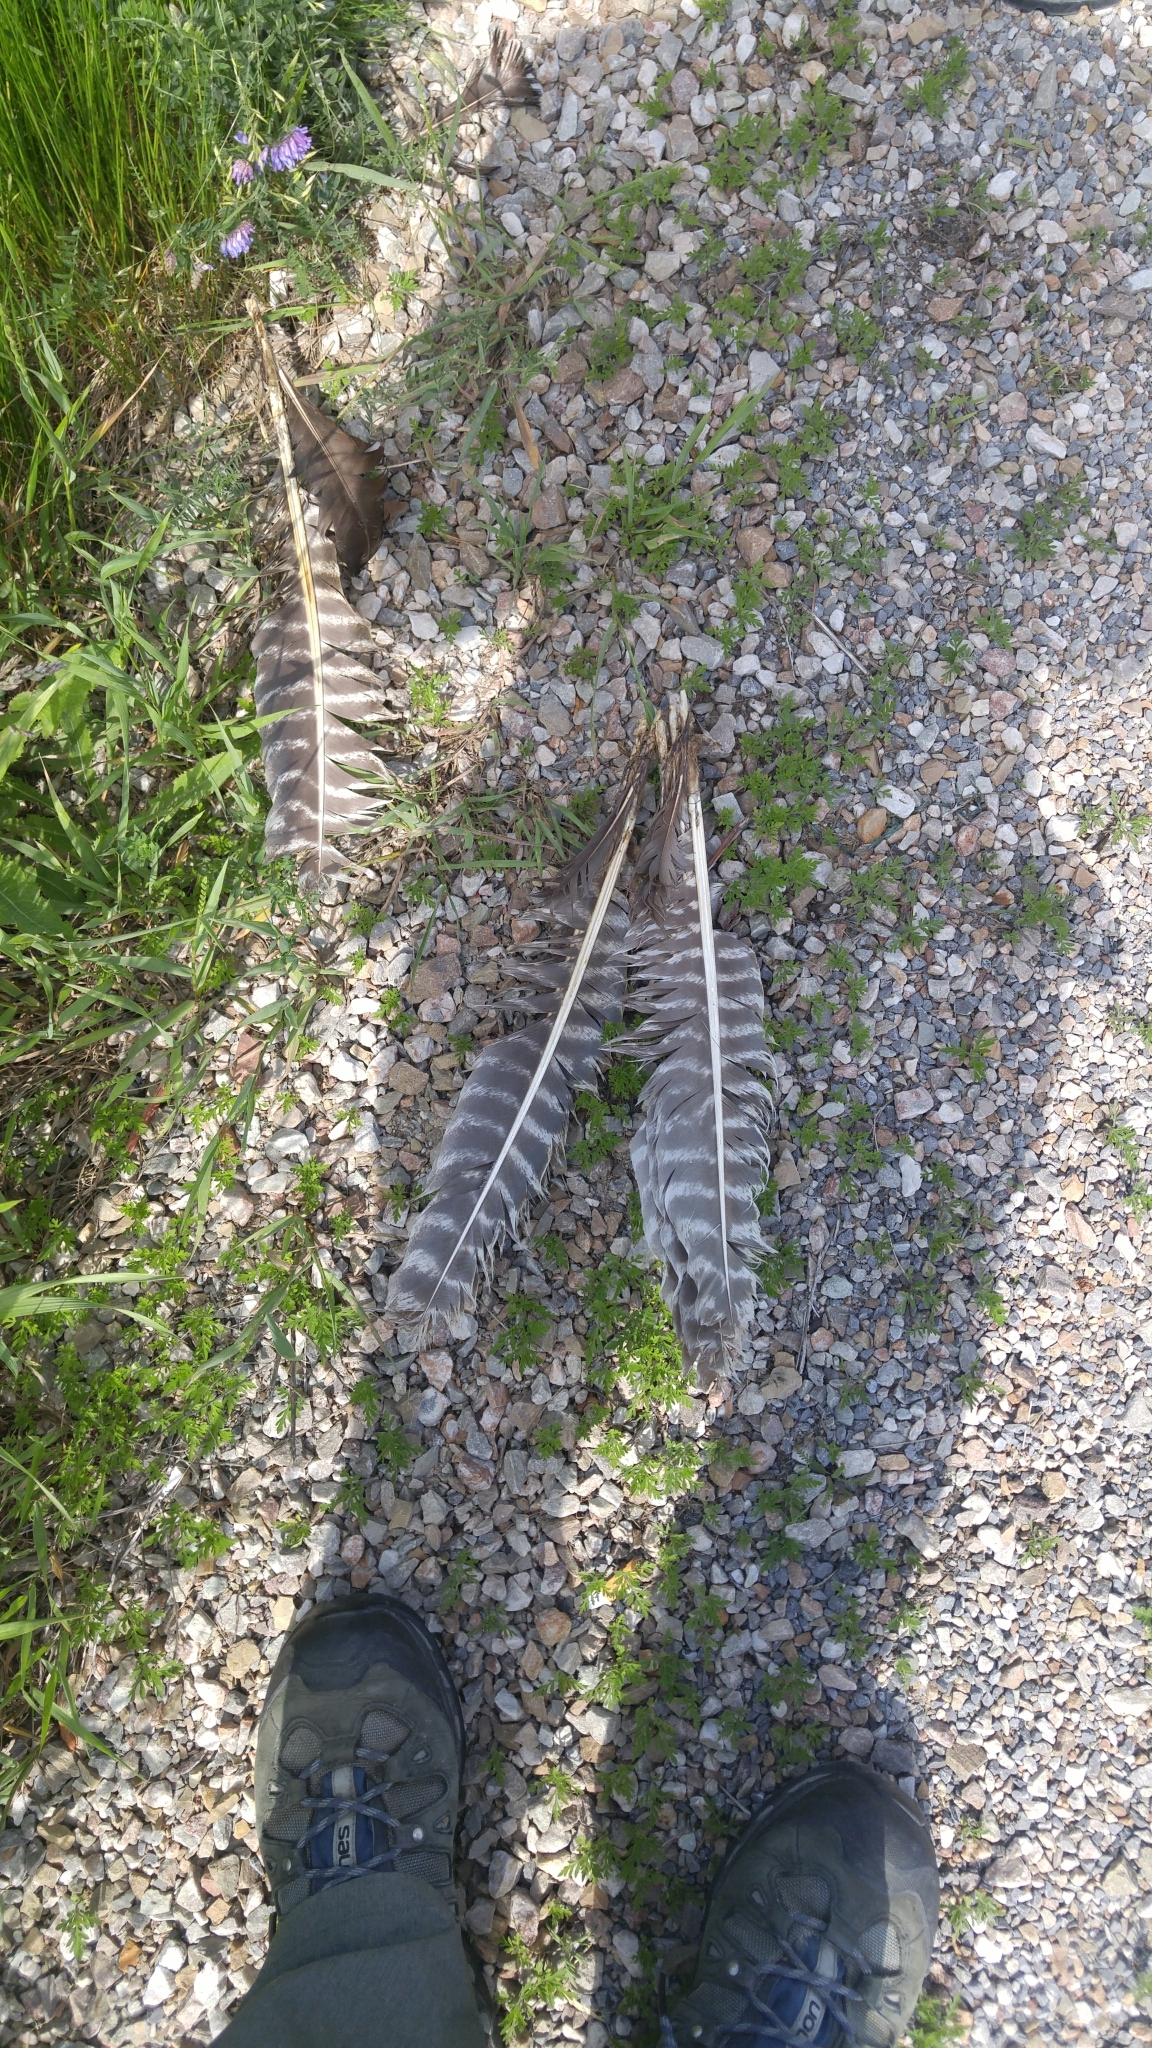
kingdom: Animalia
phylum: Chordata
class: Aves
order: Galliformes
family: Phasianidae
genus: Meleagris
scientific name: Meleagris gallopavo
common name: Wild turkey
